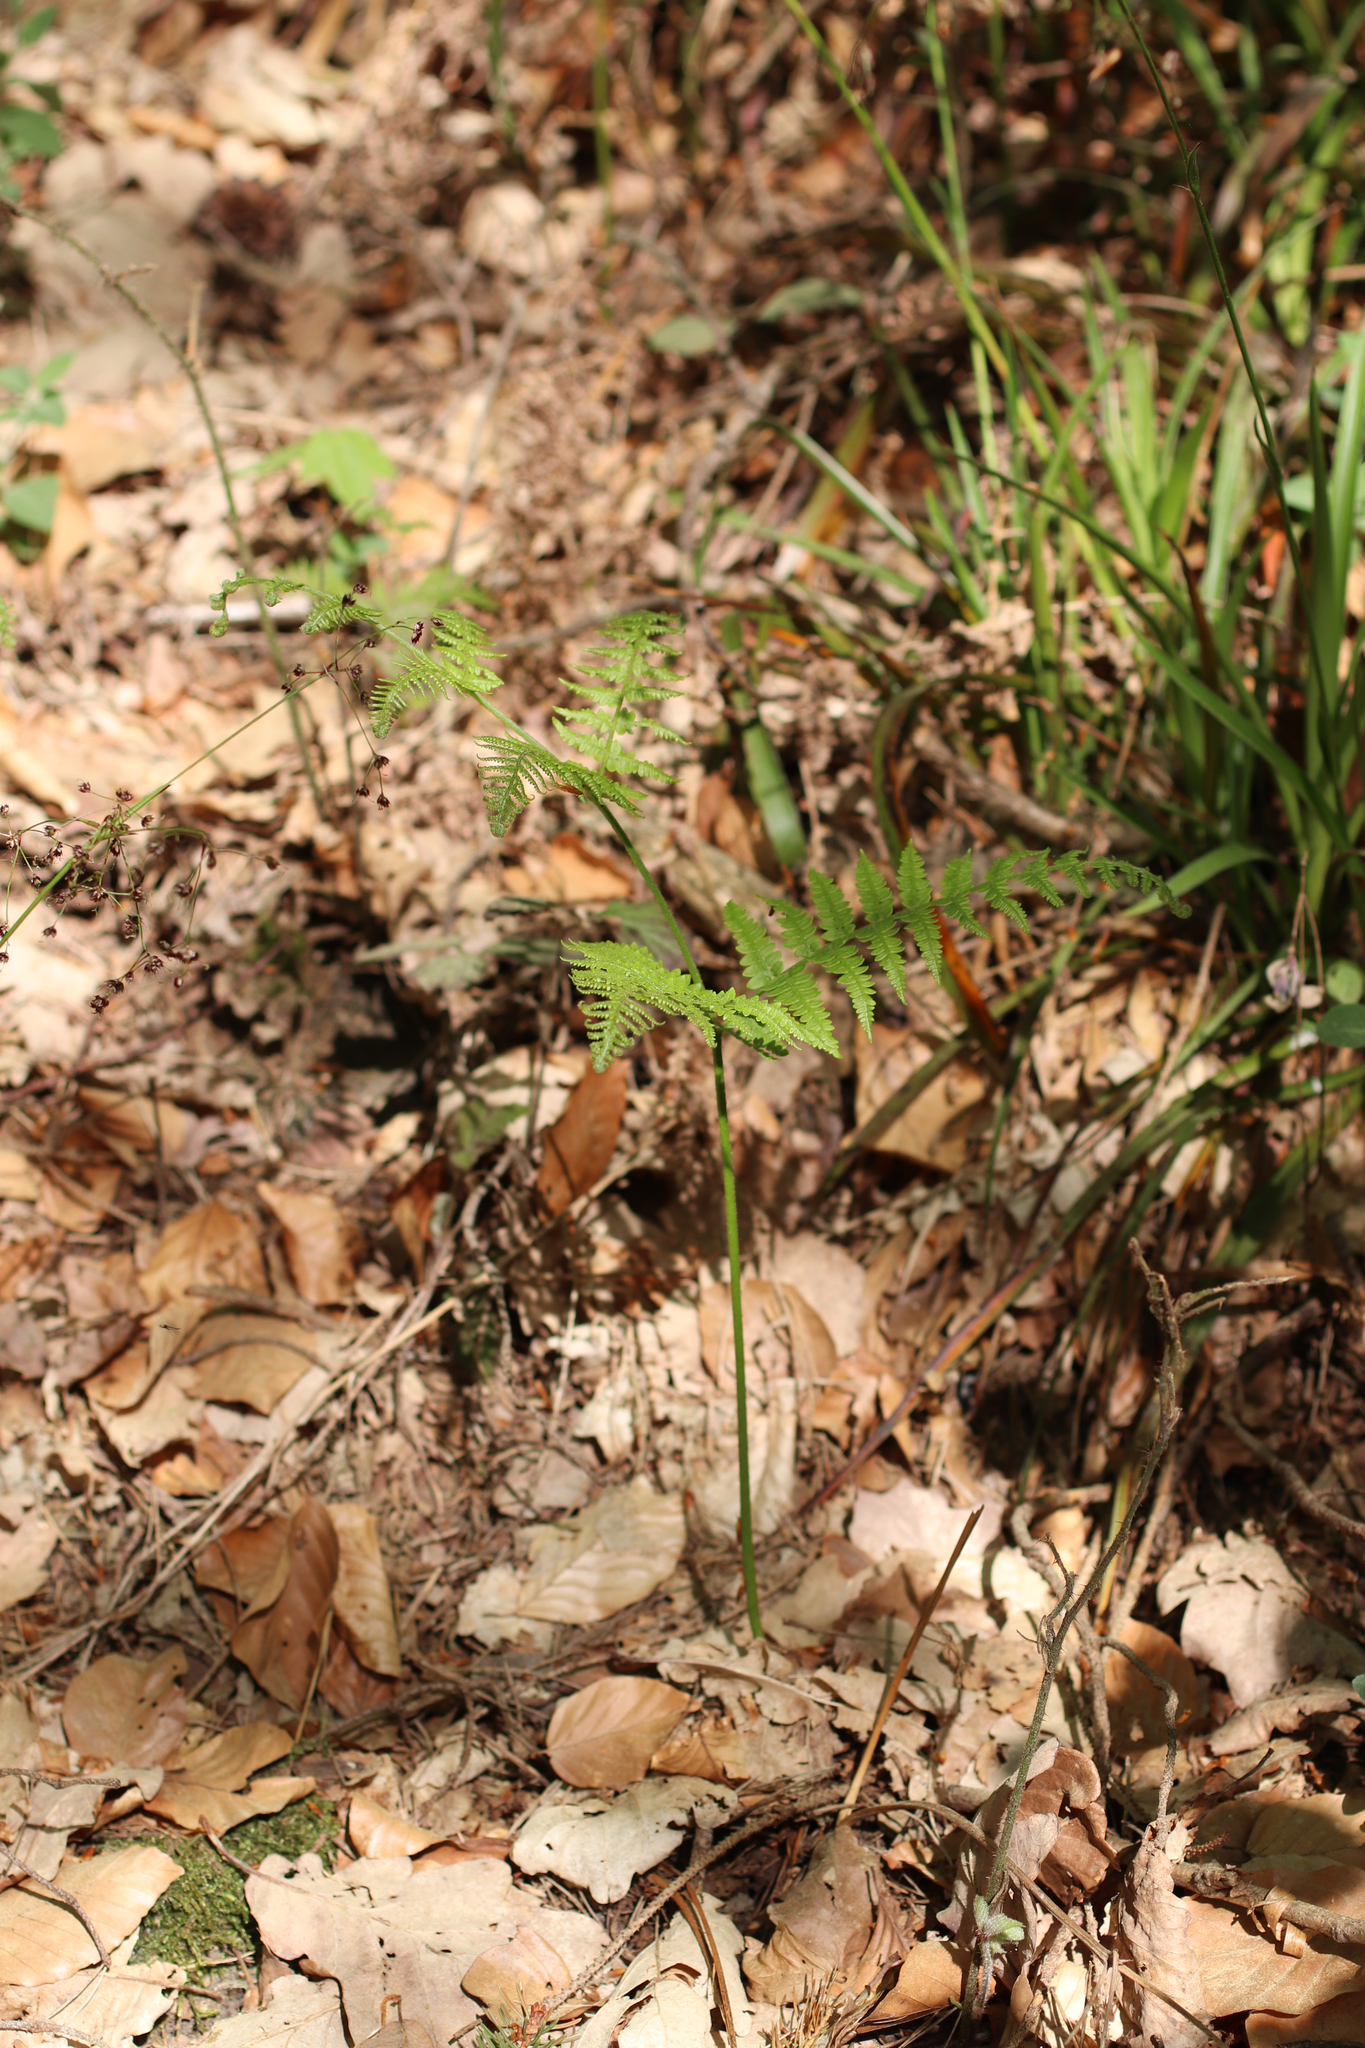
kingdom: Plantae
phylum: Tracheophyta
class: Polypodiopsida
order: Polypodiales
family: Dennstaedtiaceae
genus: Pteridium
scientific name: Pteridium aquilinum
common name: Bracken
